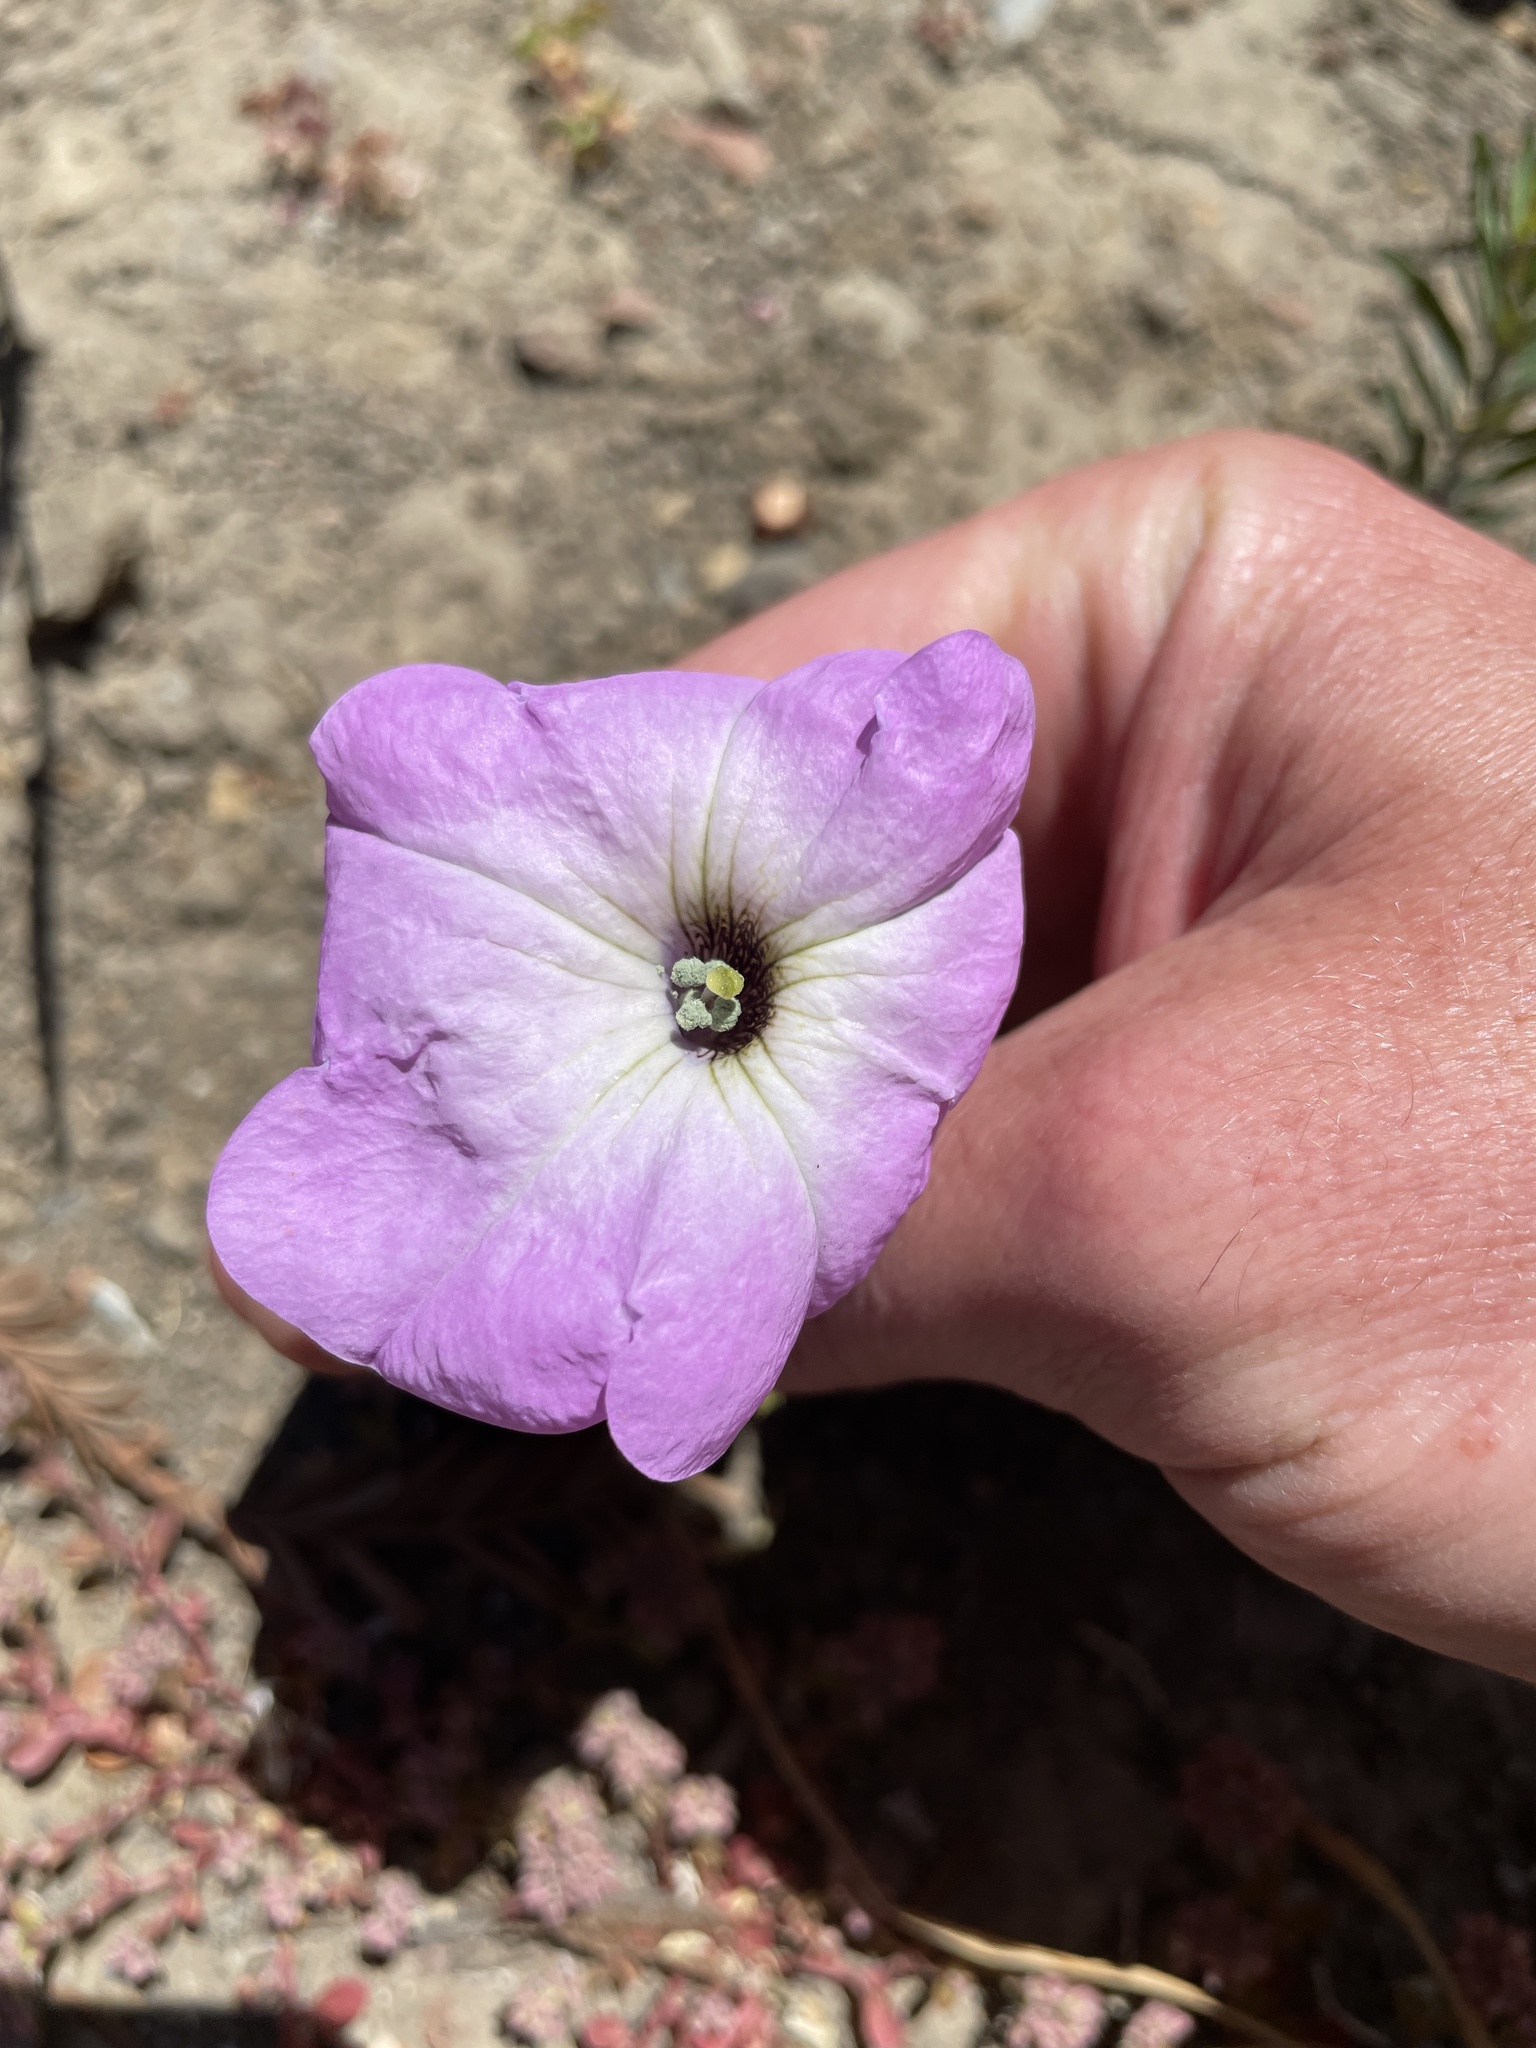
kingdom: Plantae
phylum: Tracheophyta
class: Magnoliopsida
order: Solanales
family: Solanaceae
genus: Petunia
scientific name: Petunia atkinsiana
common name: Petunia
